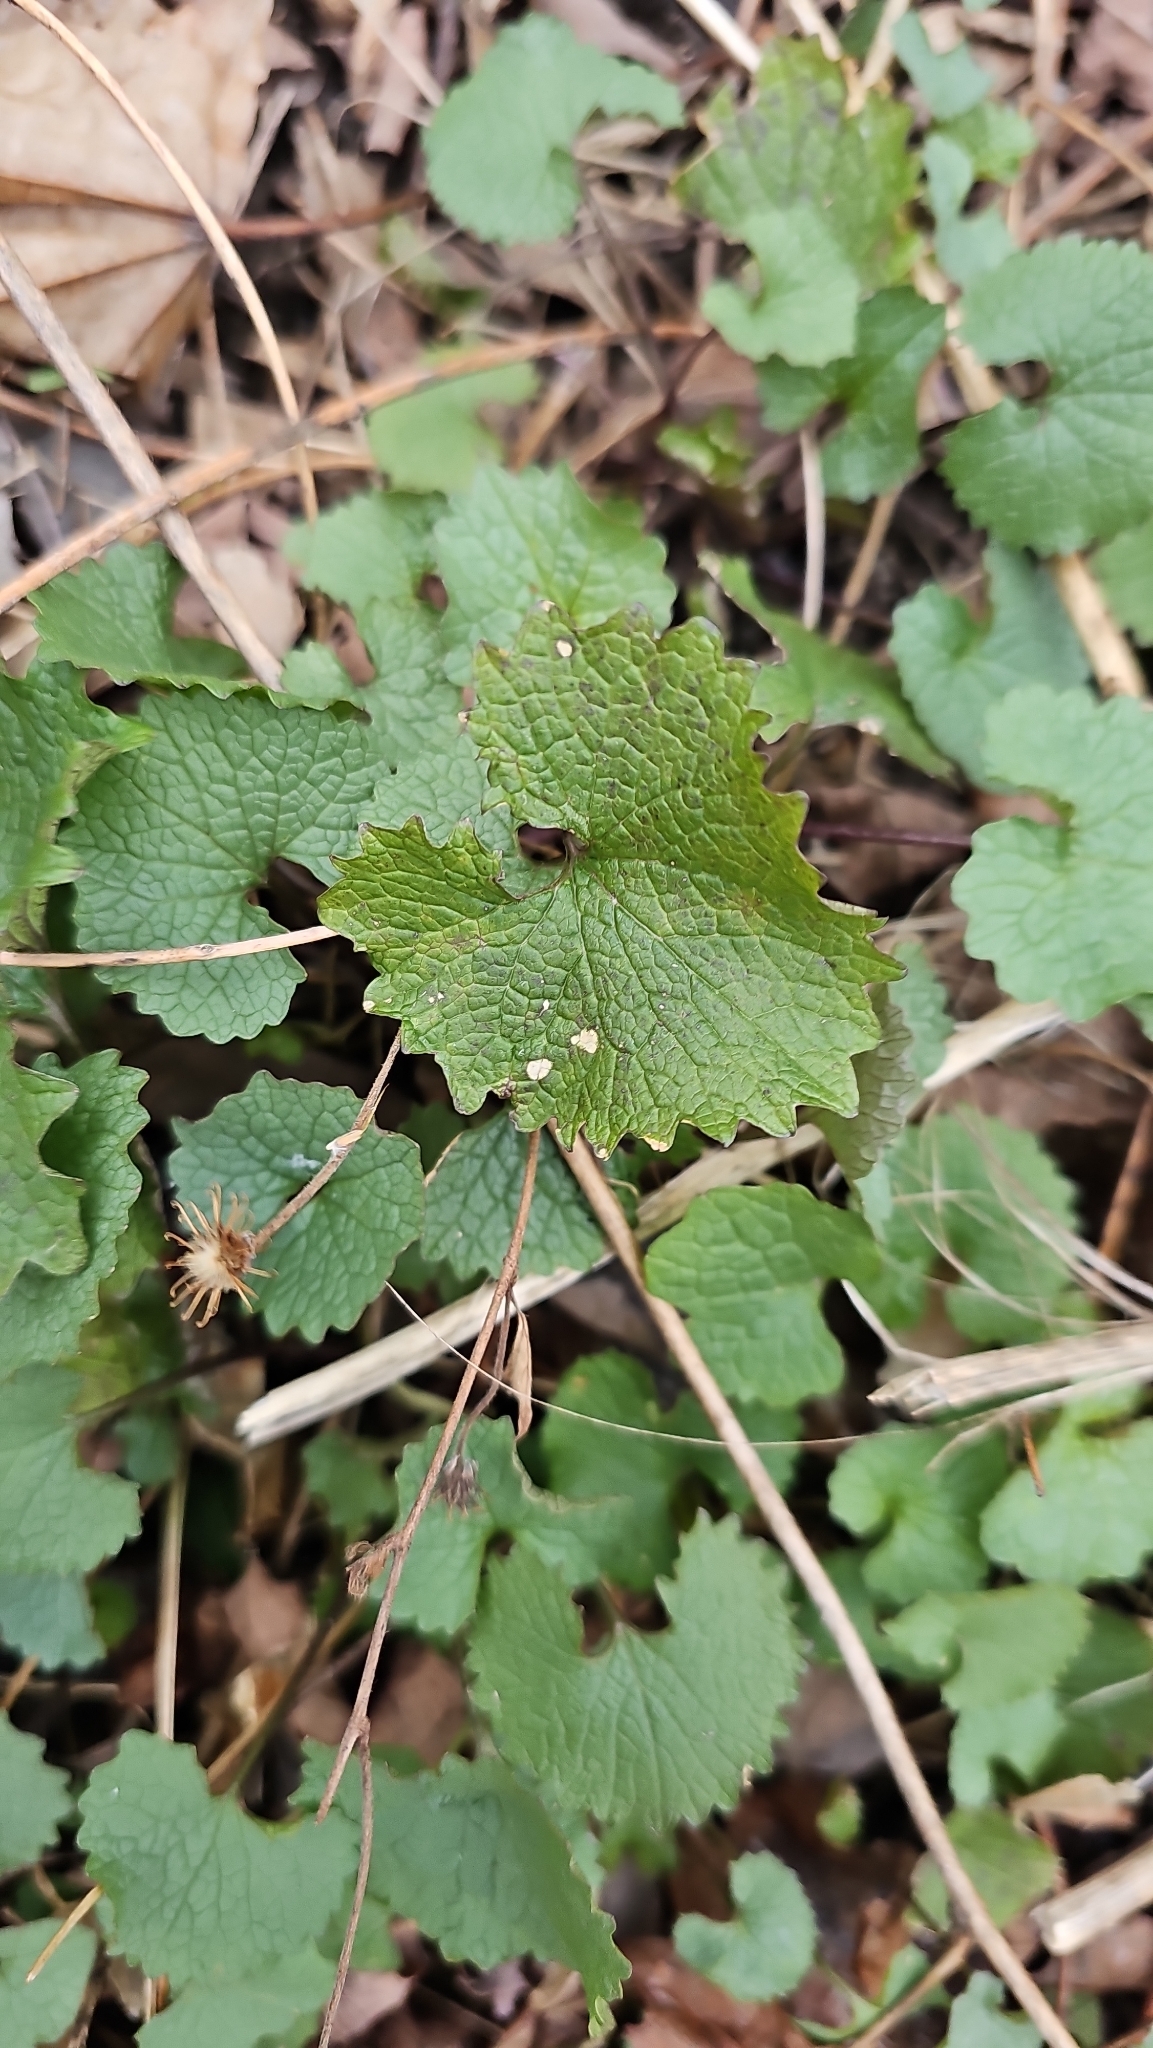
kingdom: Plantae
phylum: Tracheophyta
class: Magnoliopsida
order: Brassicales
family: Brassicaceae
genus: Alliaria
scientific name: Alliaria petiolata
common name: Garlic mustard
